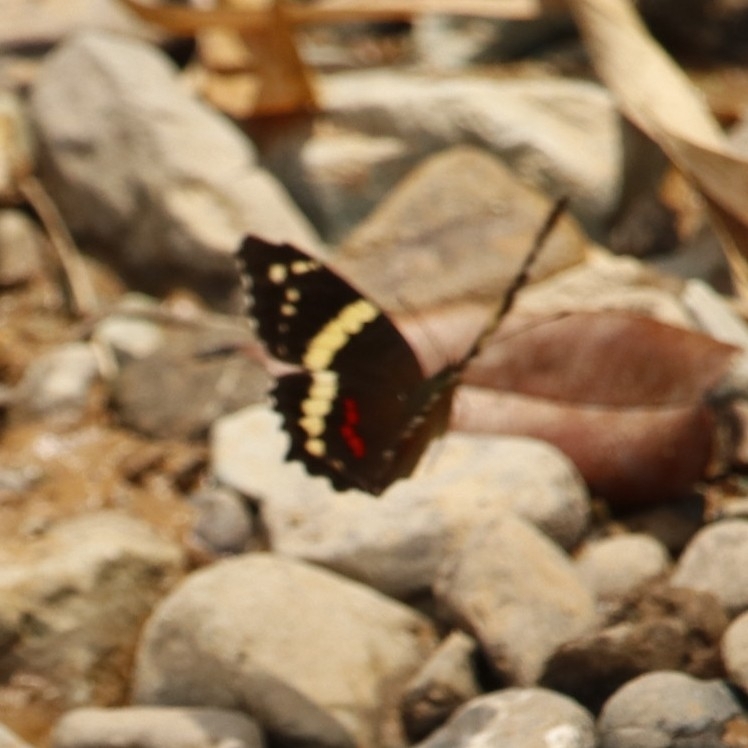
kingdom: Animalia
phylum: Arthropoda
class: Insecta
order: Lepidoptera
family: Nymphalidae
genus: Anartia
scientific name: Anartia fatima
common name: Banded peacock
